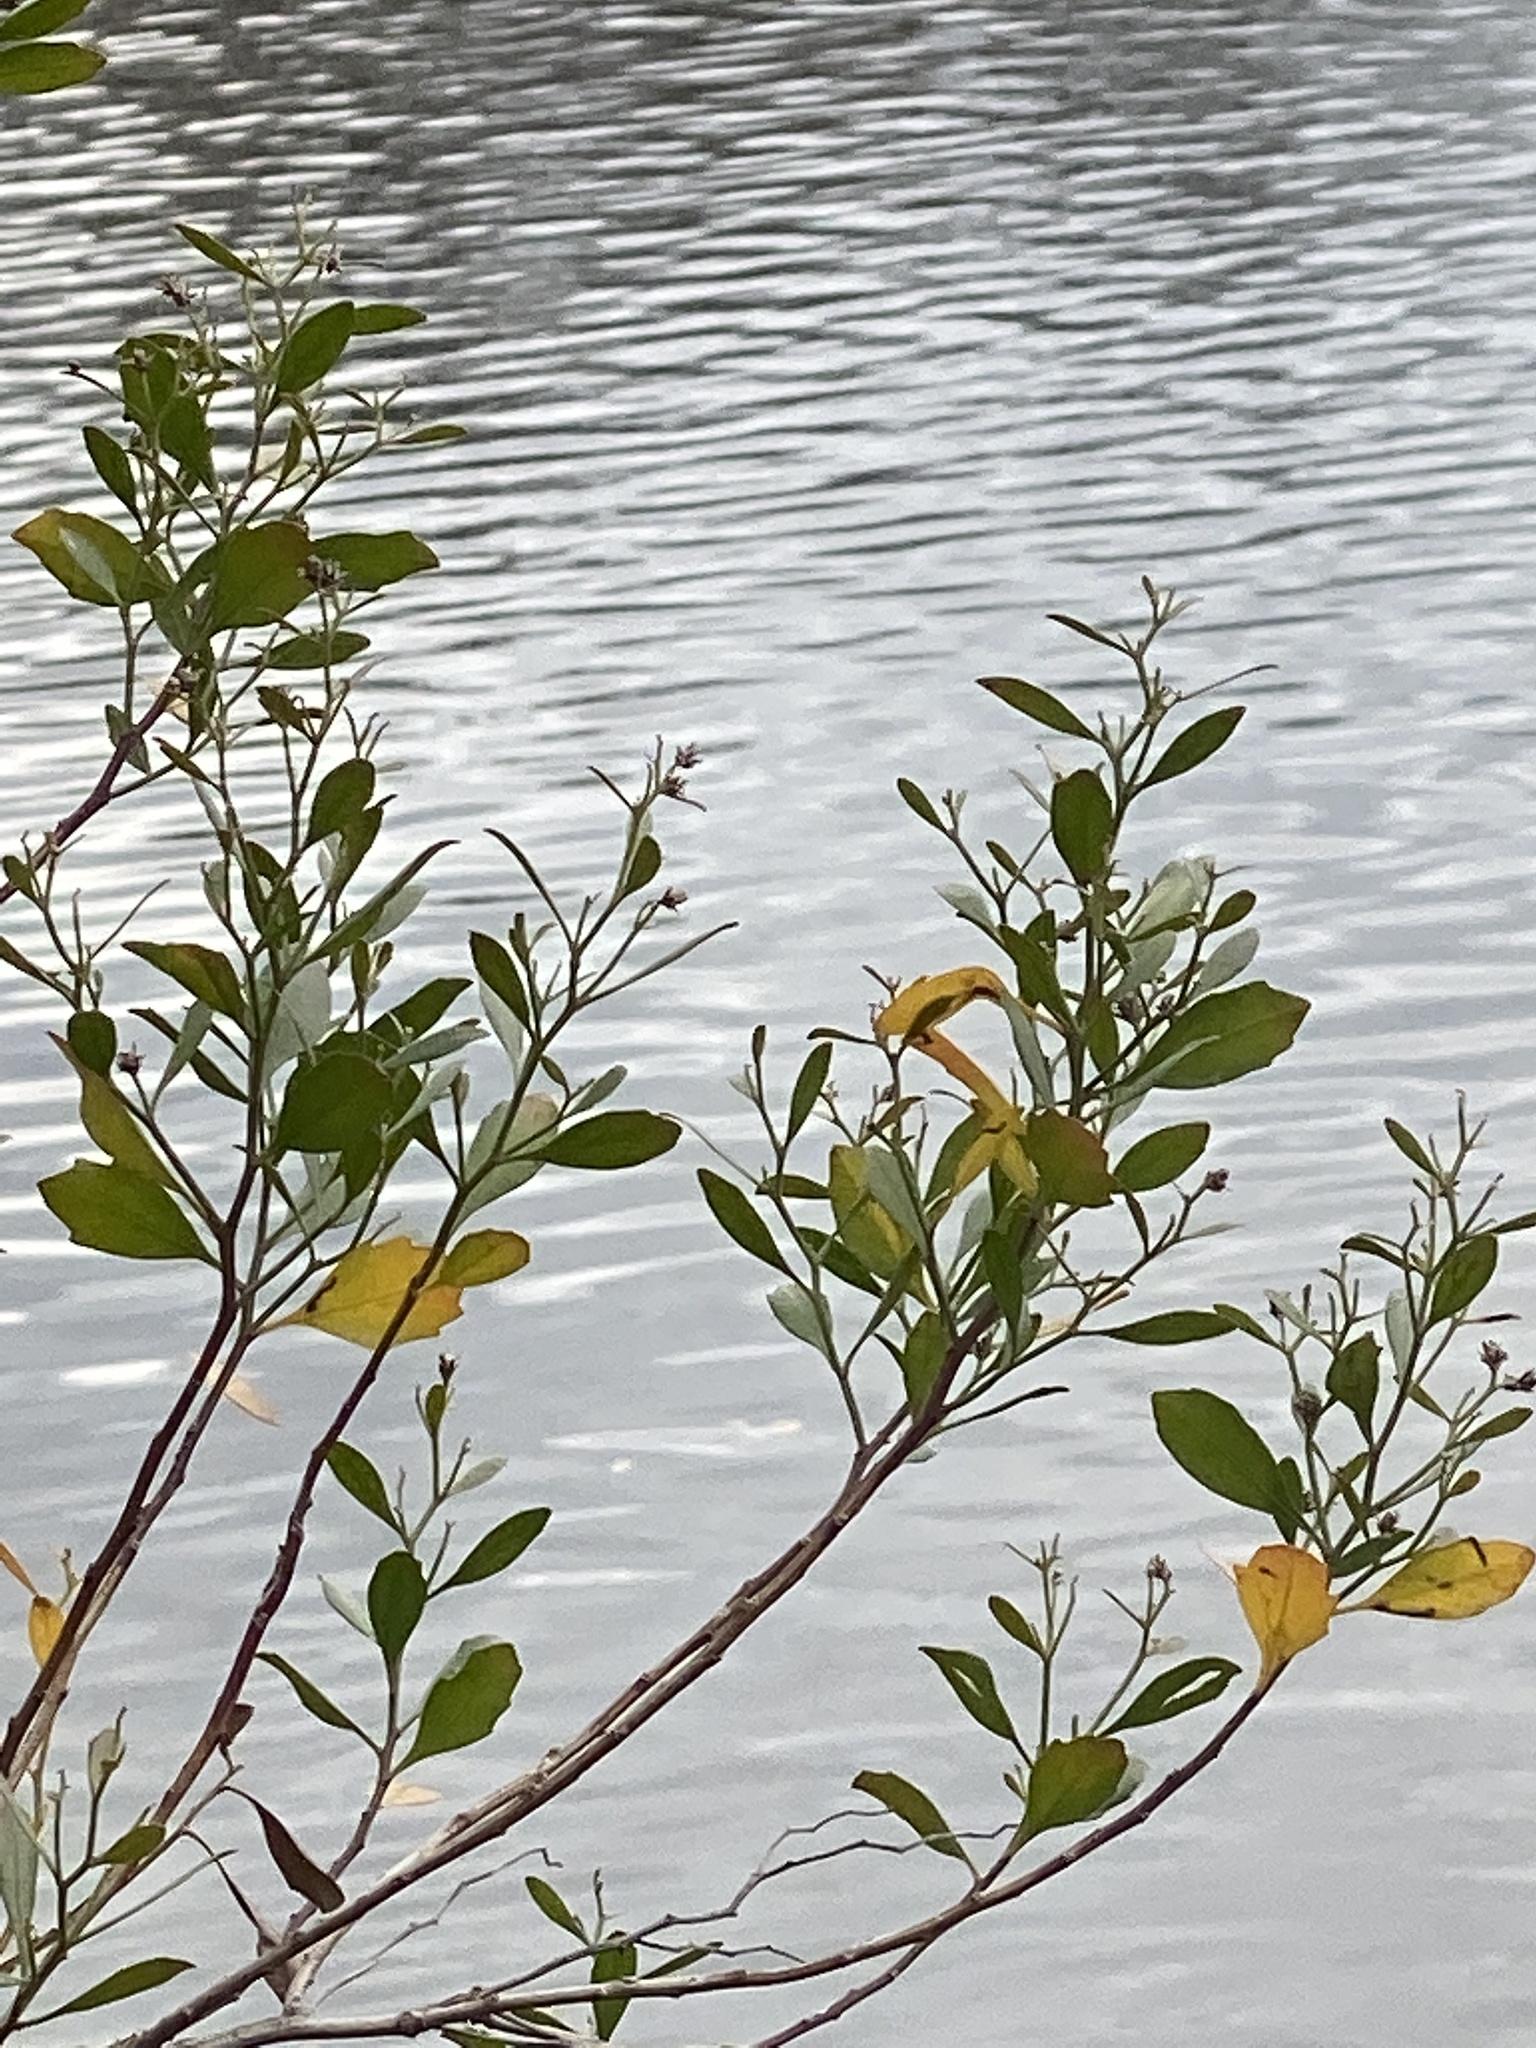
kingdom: Plantae
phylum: Tracheophyta
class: Magnoliopsida
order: Asterales
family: Asteraceae
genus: Baccharis
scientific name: Baccharis halimifolia
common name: Eastern baccharis
